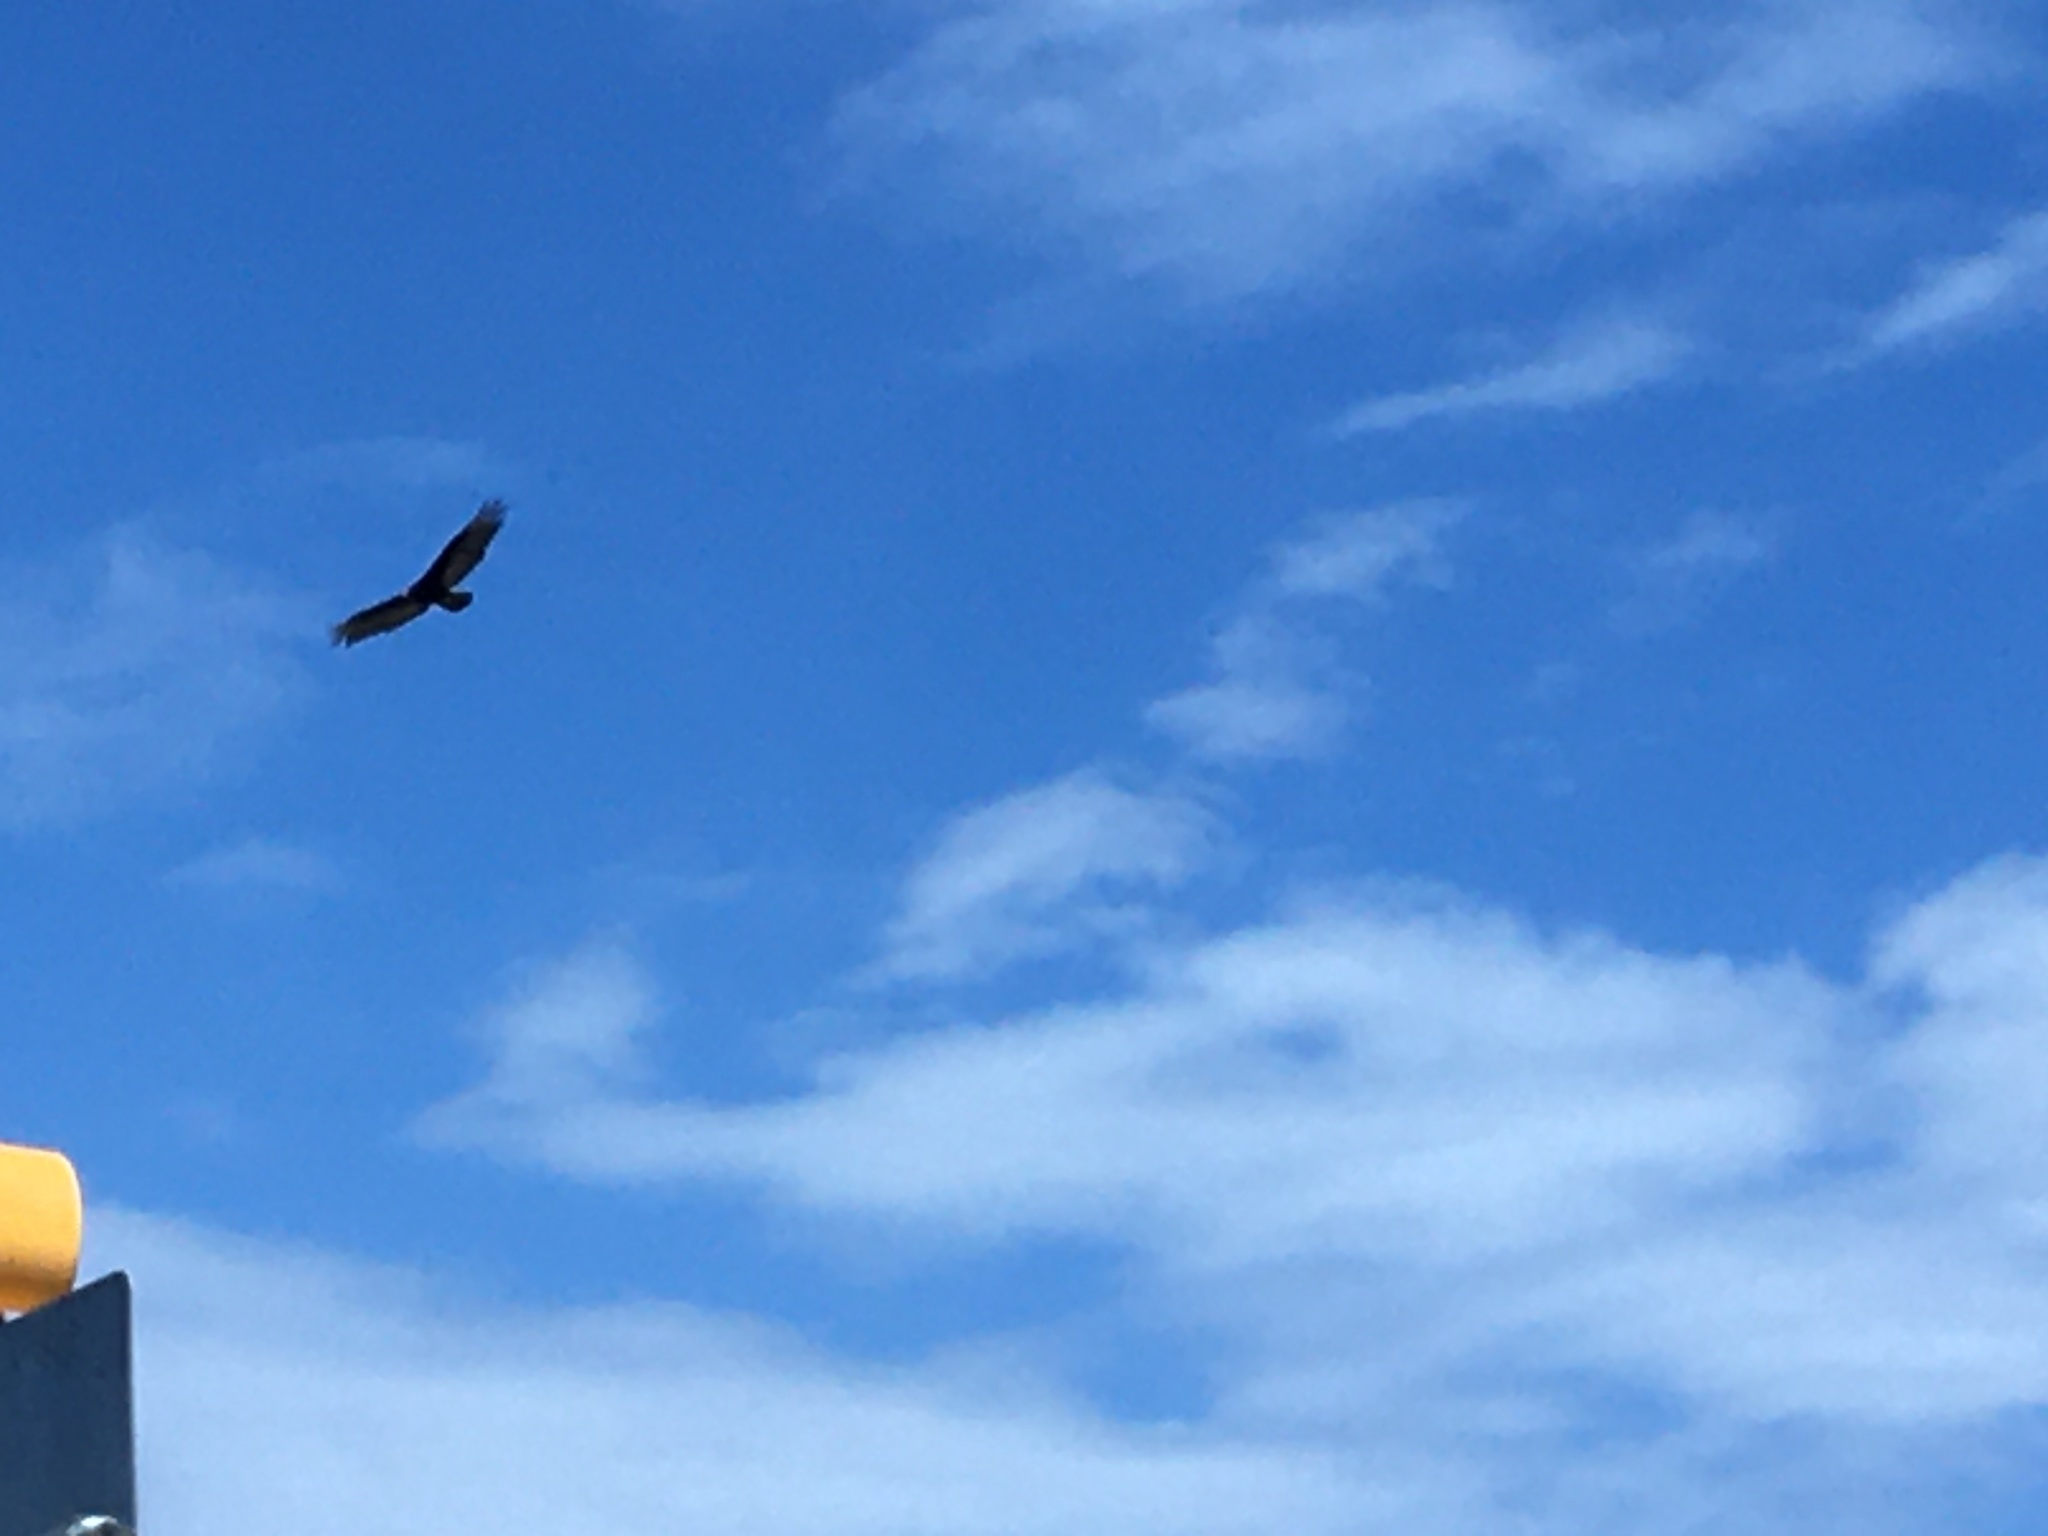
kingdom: Animalia
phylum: Chordata
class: Aves
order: Accipitriformes
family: Cathartidae
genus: Cathartes
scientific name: Cathartes aura
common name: Turkey vulture
